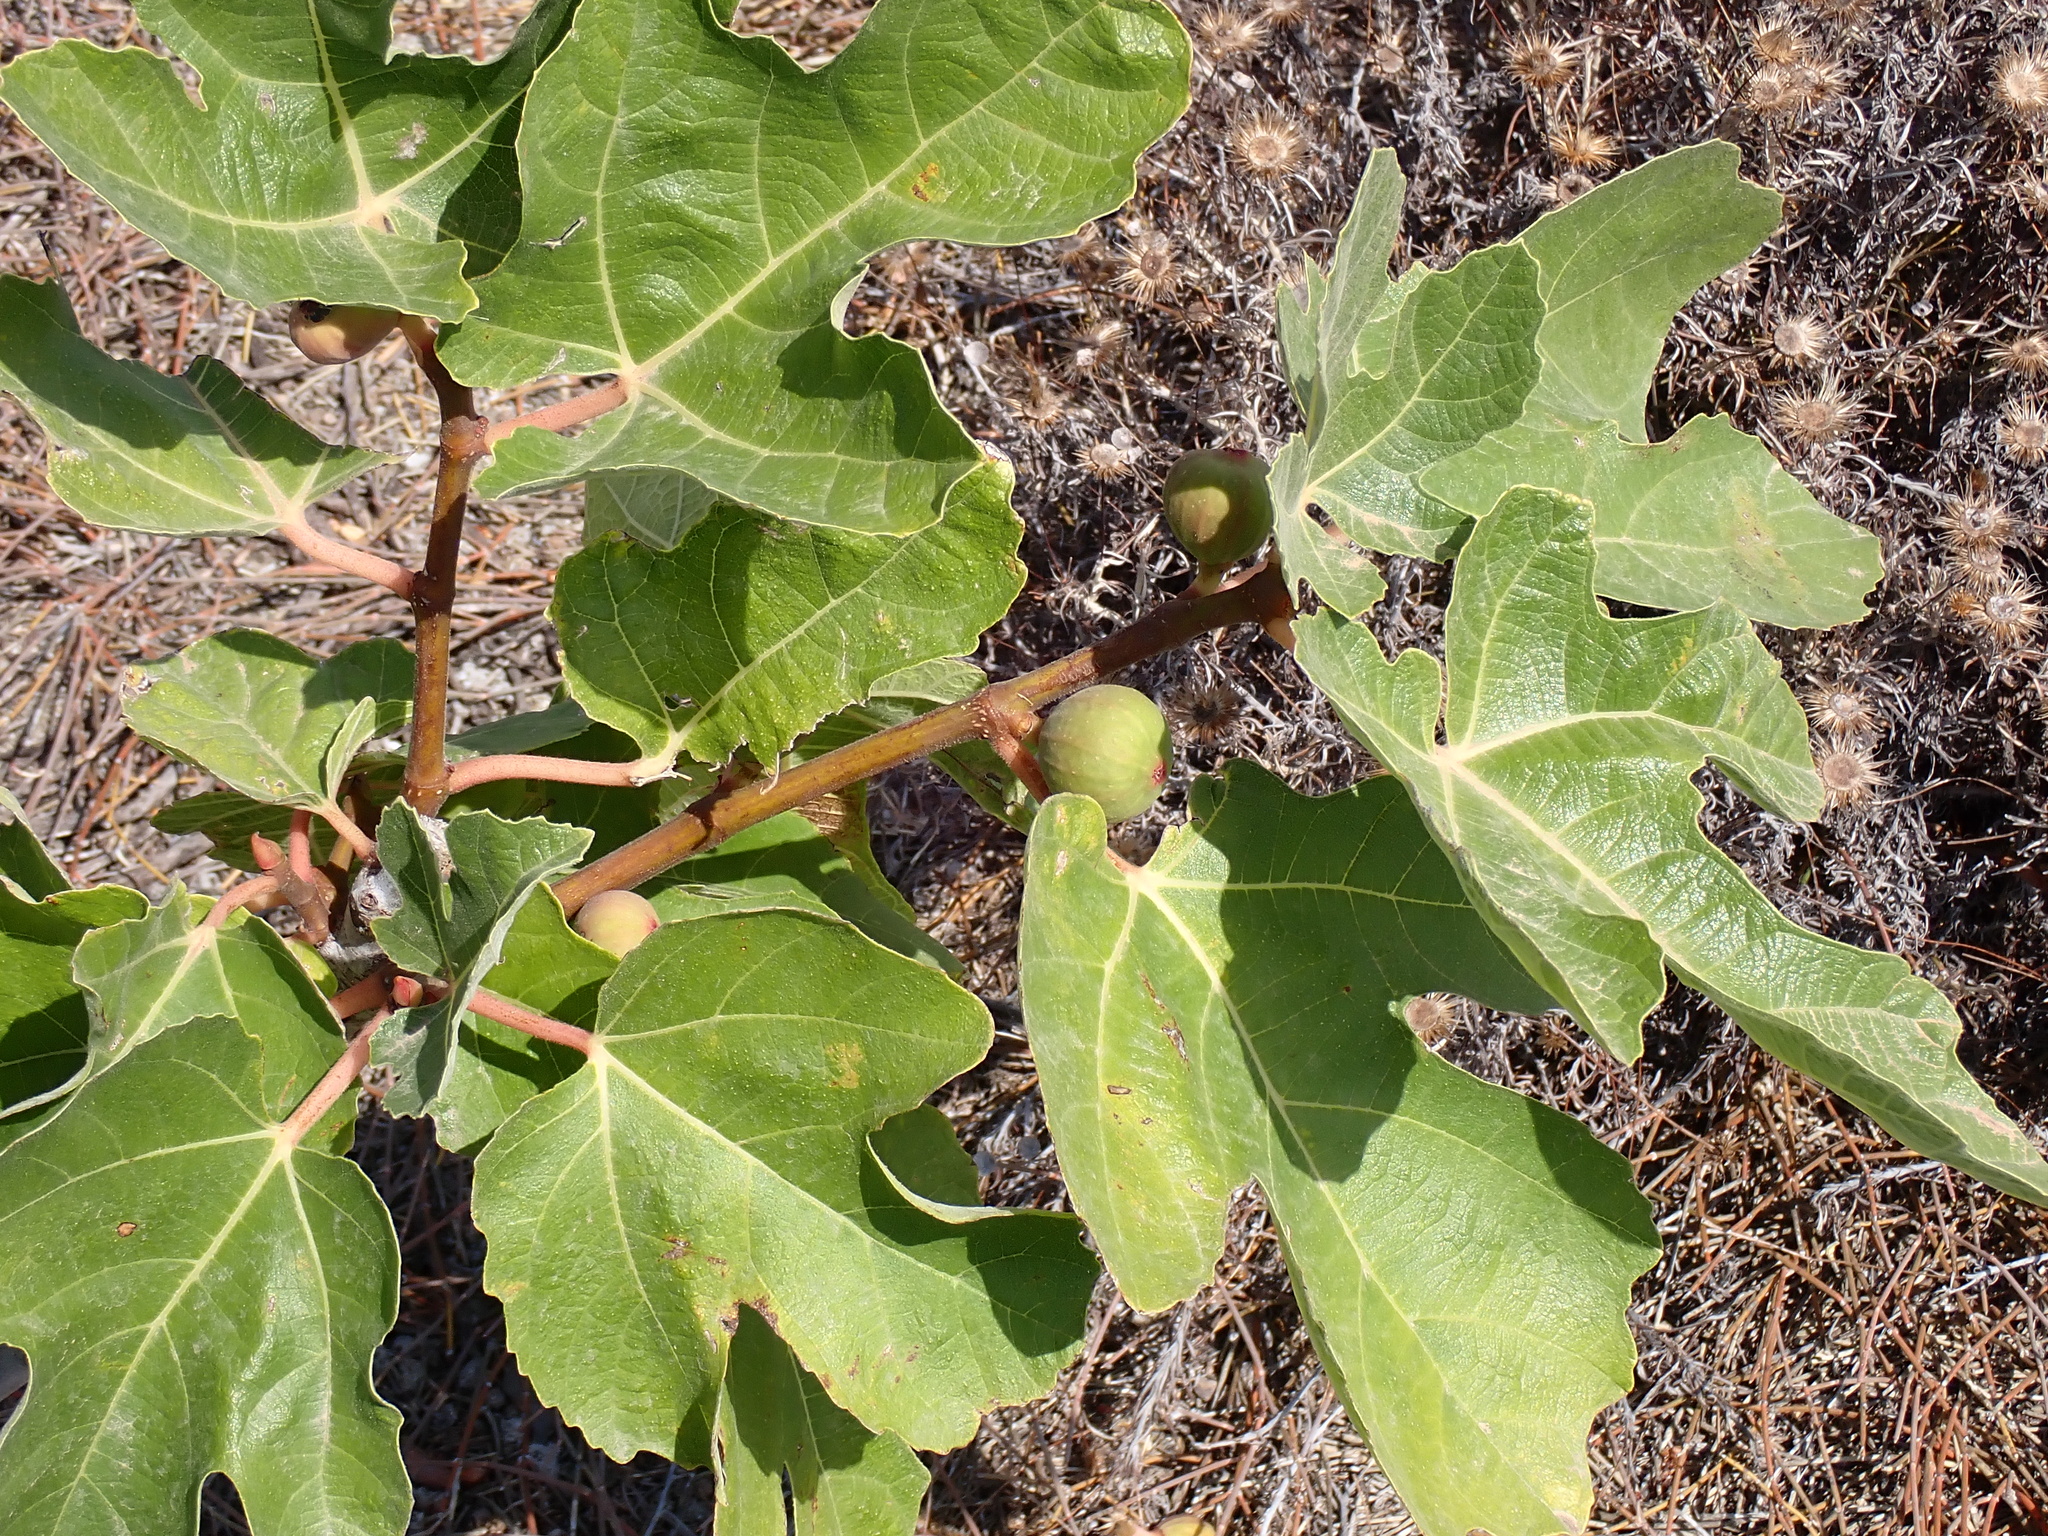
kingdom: Plantae
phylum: Tracheophyta
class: Magnoliopsida
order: Rosales
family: Moraceae
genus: Ficus
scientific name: Ficus carica
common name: Fig
